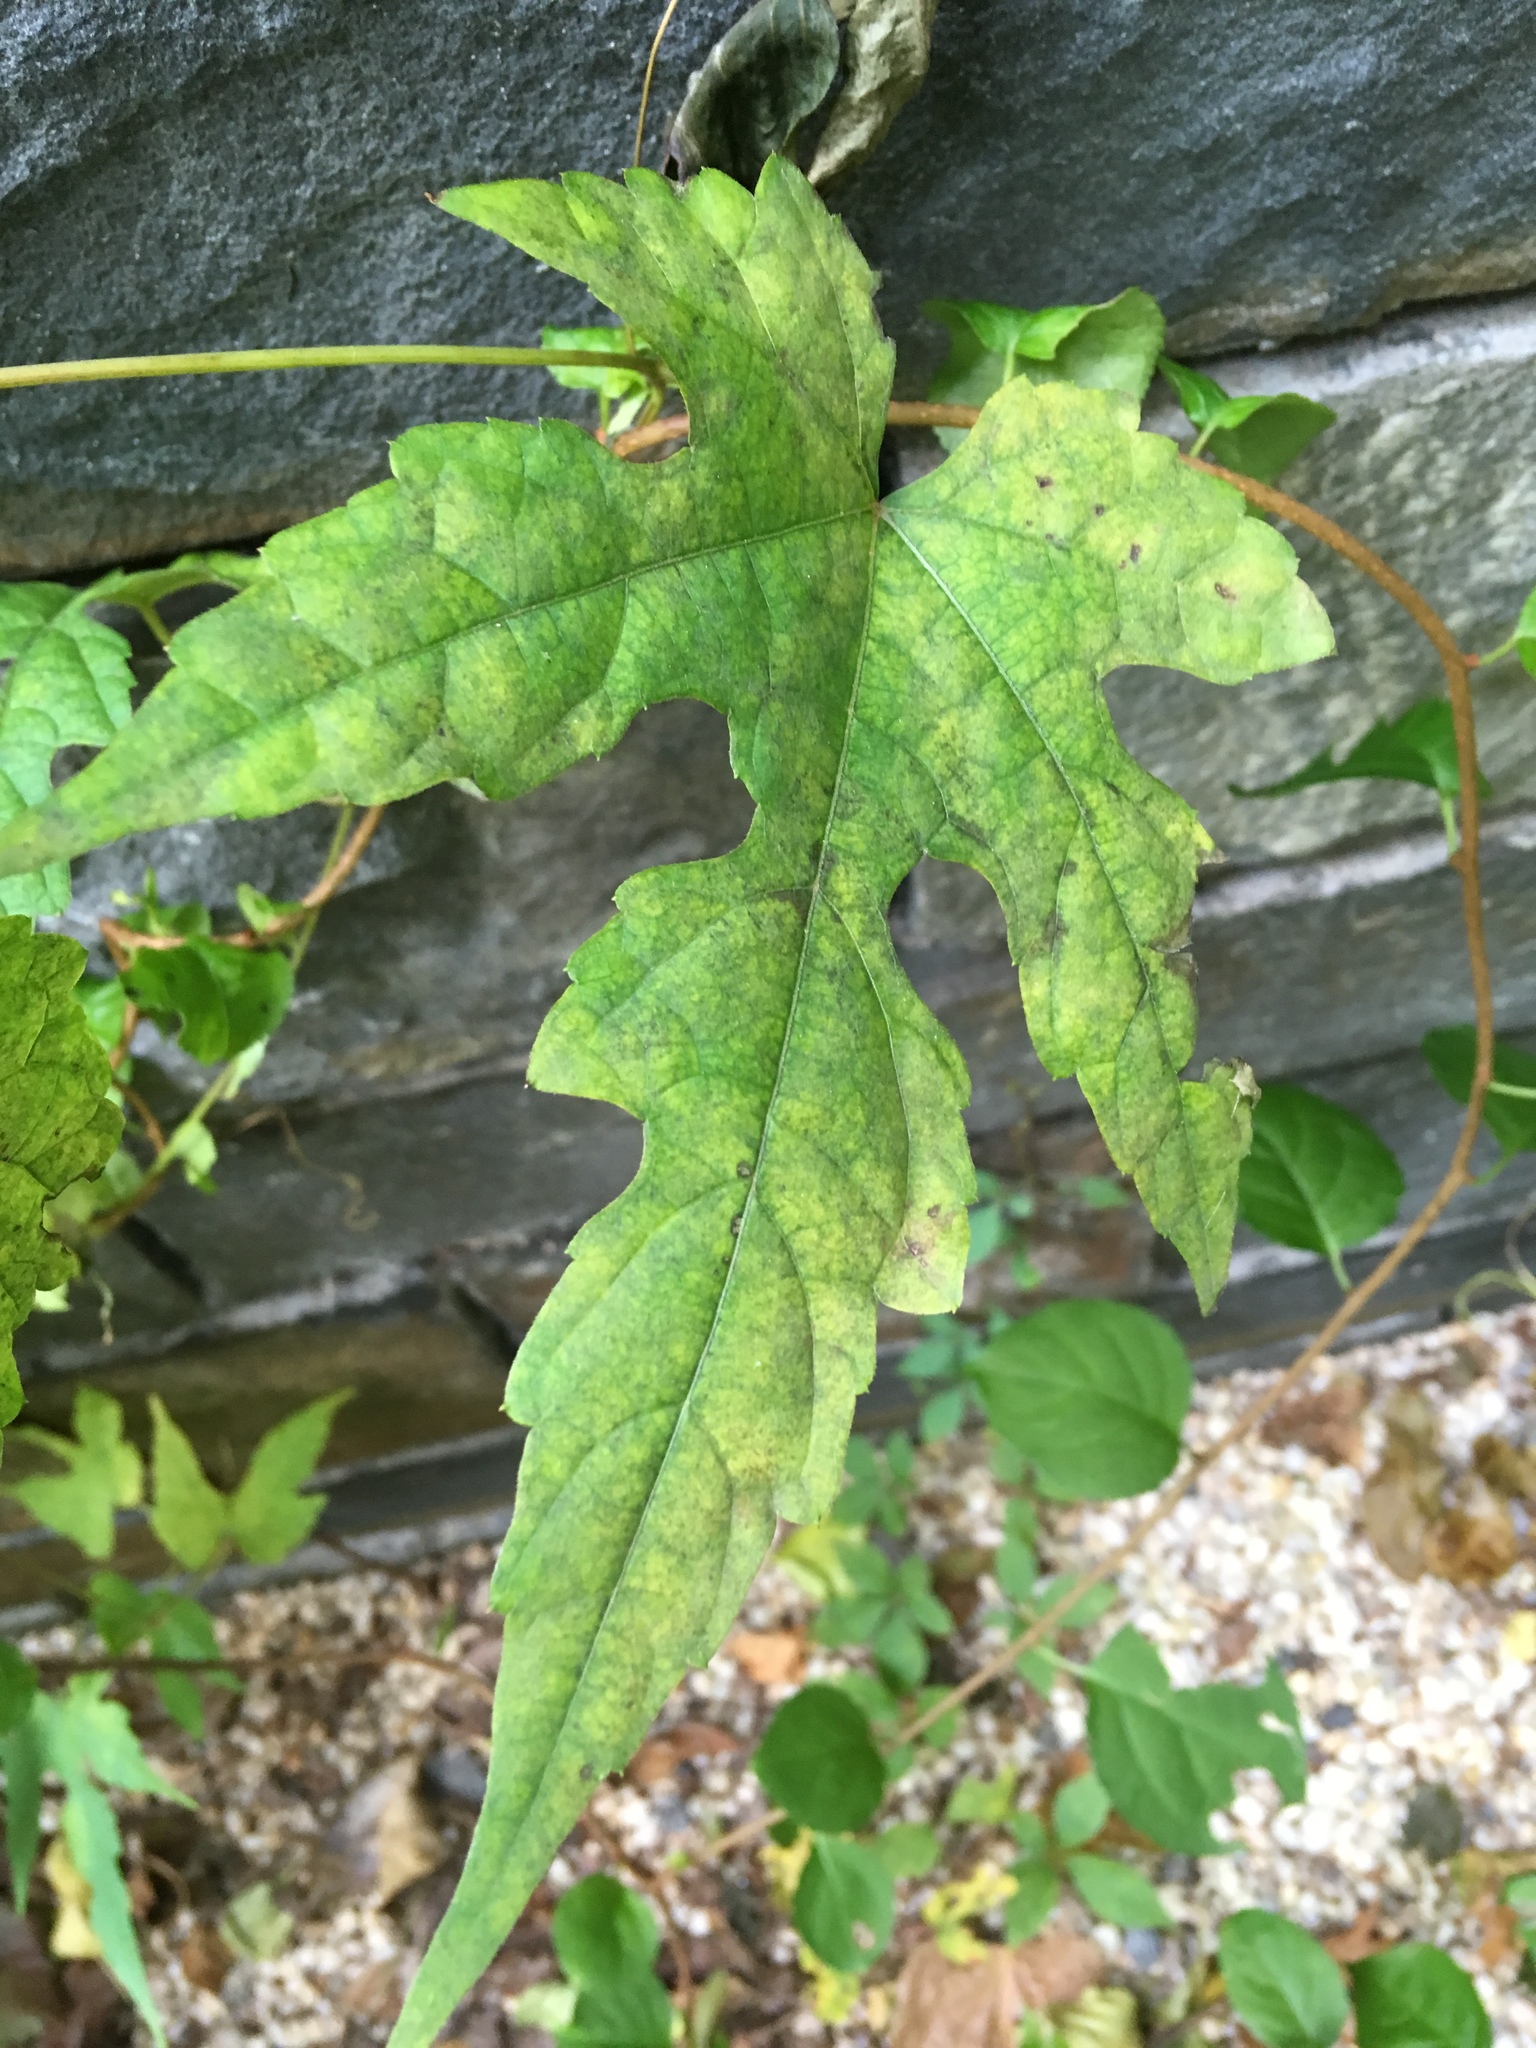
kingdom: Plantae
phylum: Tracheophyta
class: Magnoliopsida
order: Vitales
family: Vitaceae
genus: Ampelopsis
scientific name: Ampelopsis glandulosa
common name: Amur peppervine
